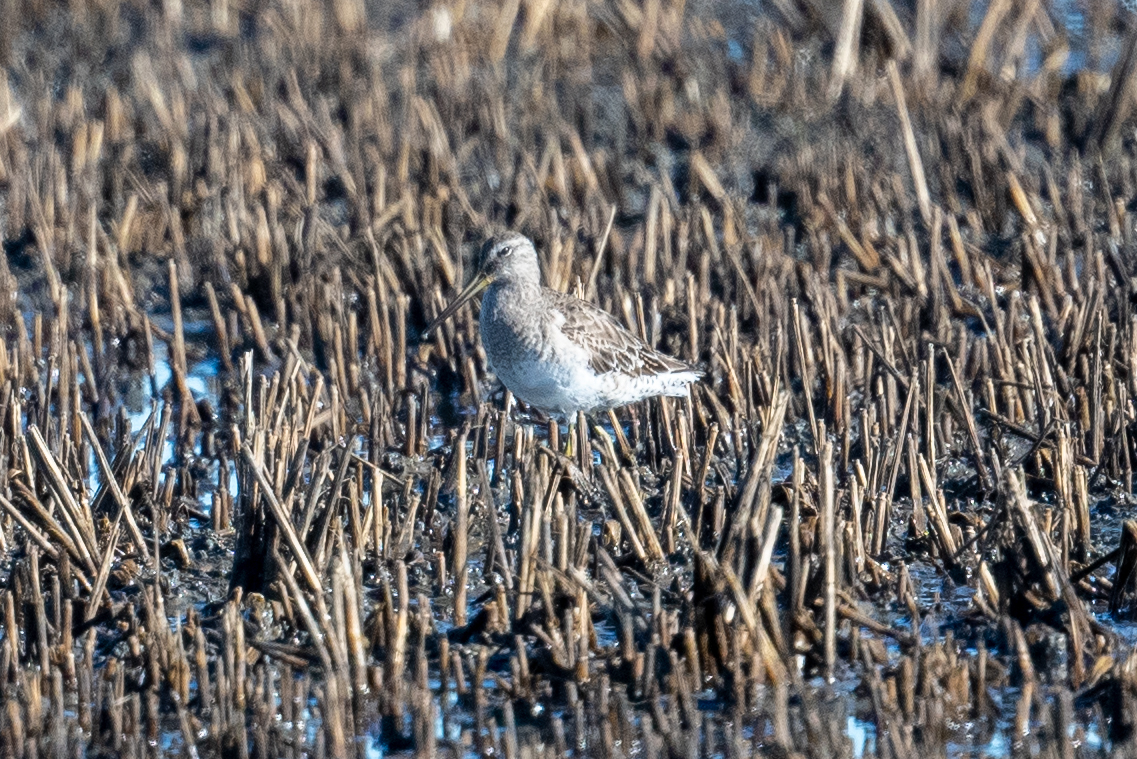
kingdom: Animalia
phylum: Chordata
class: Aves
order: Charadriiformes
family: Scolopacidae
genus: Limnodromus
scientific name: Limnodromus scolopaceus
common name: Long-billed dowitcher
